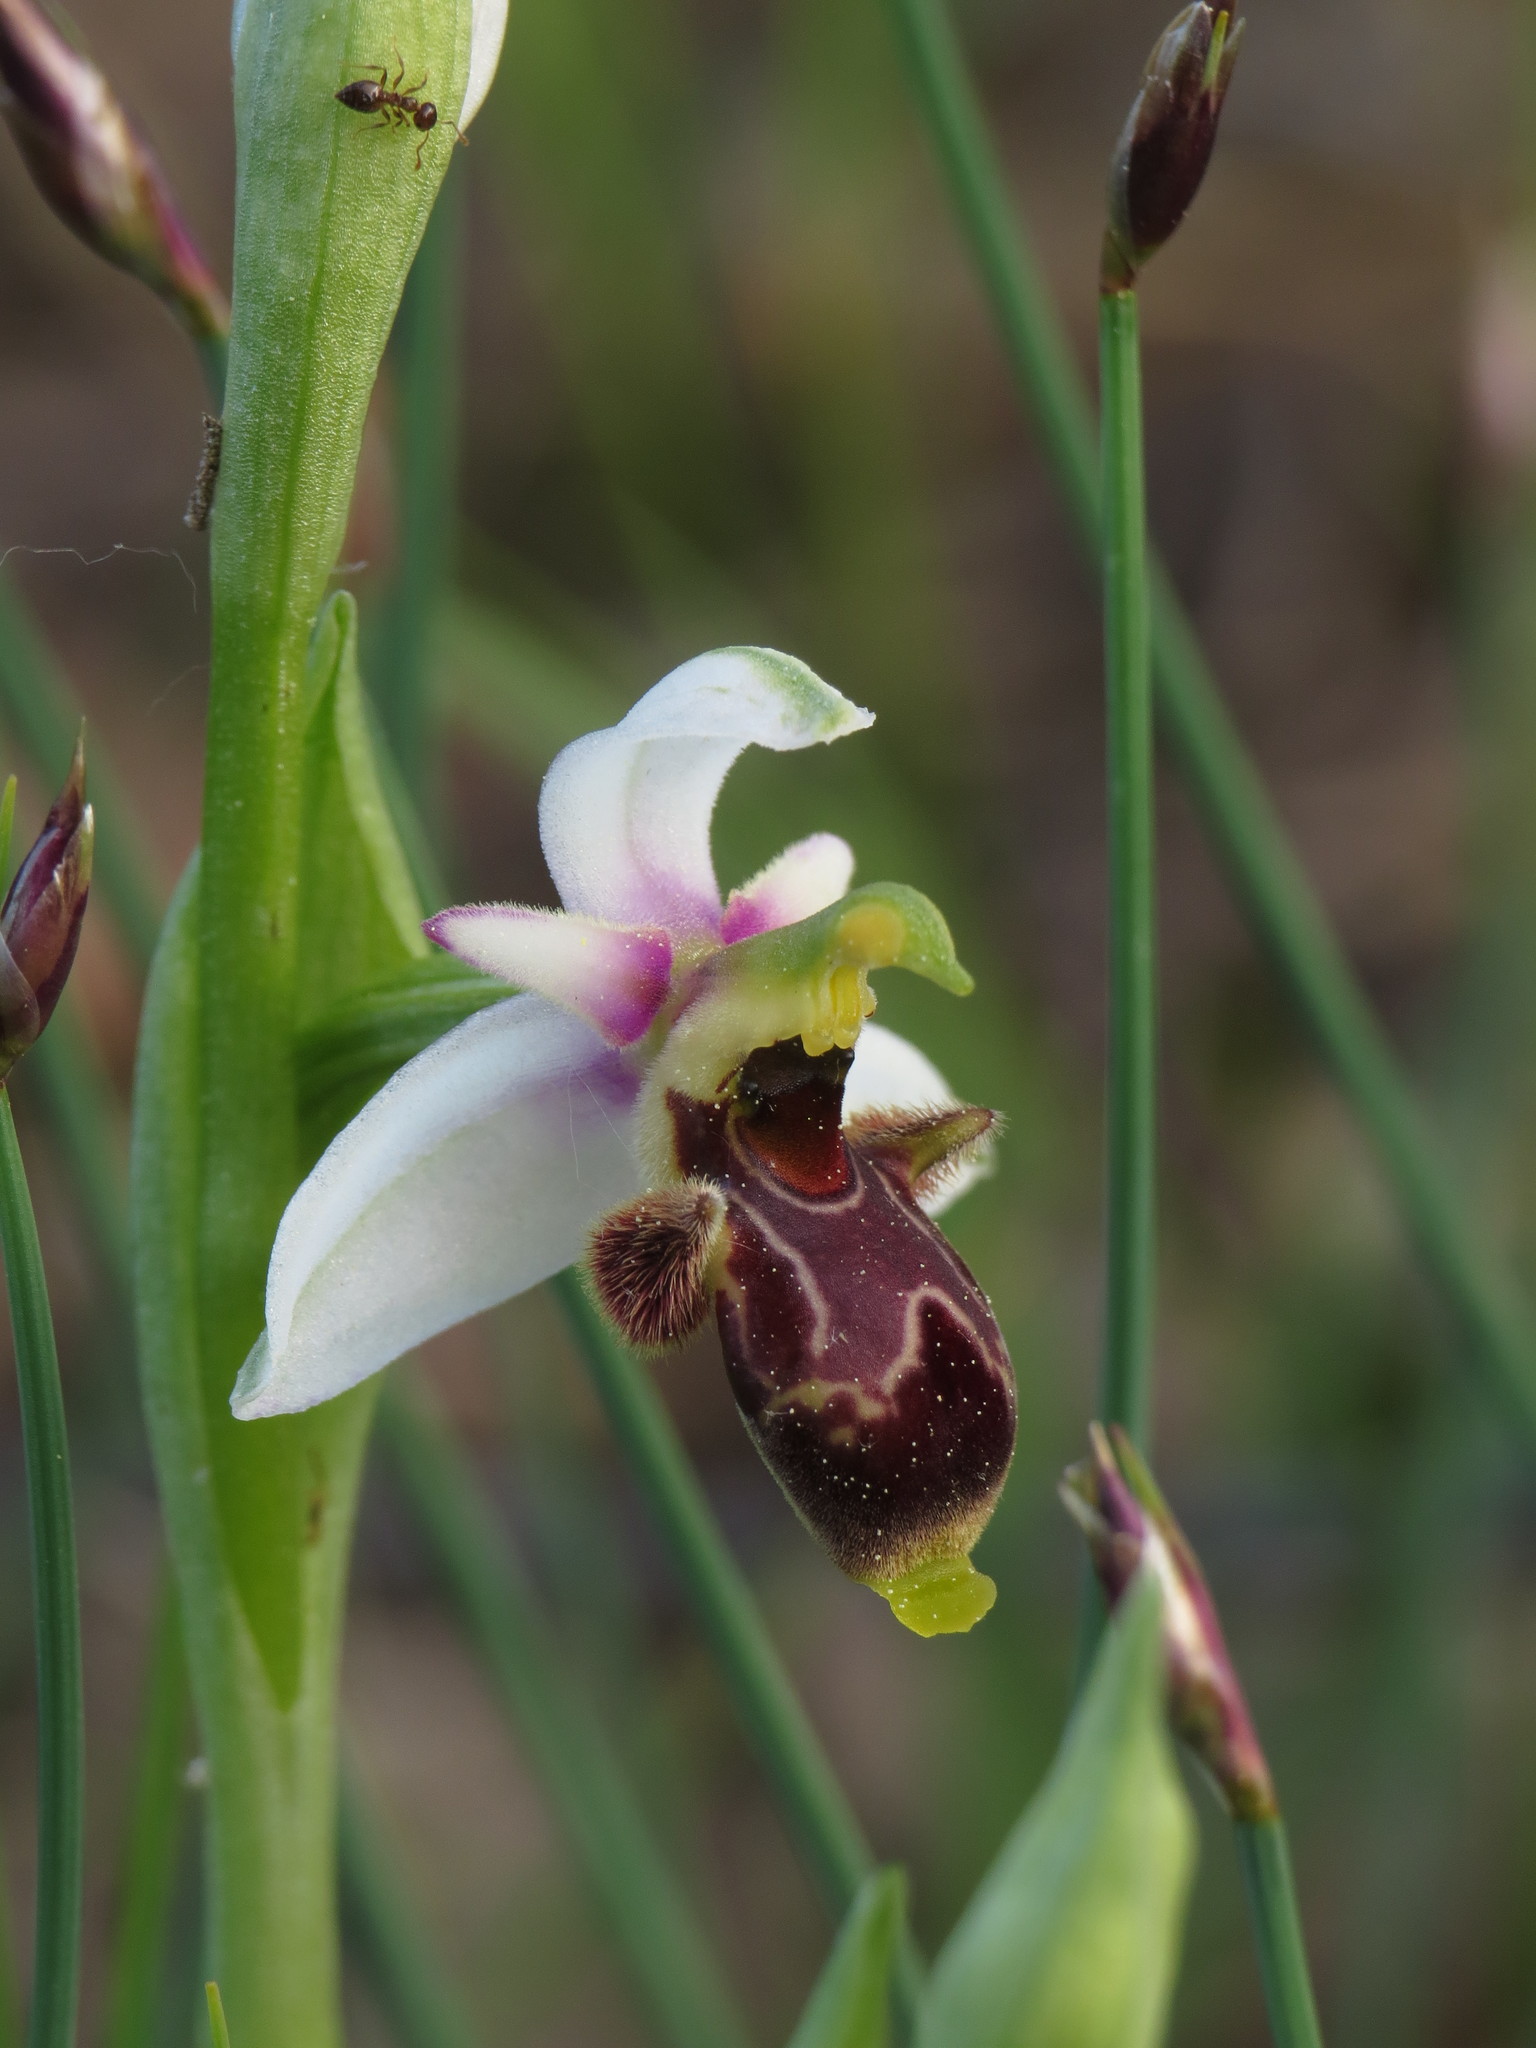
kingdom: Plantae
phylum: Tracheophyta
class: Liliopsida
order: Asparagales
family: Orchidaceae
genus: Ophrys
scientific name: Ophrys scolopax
